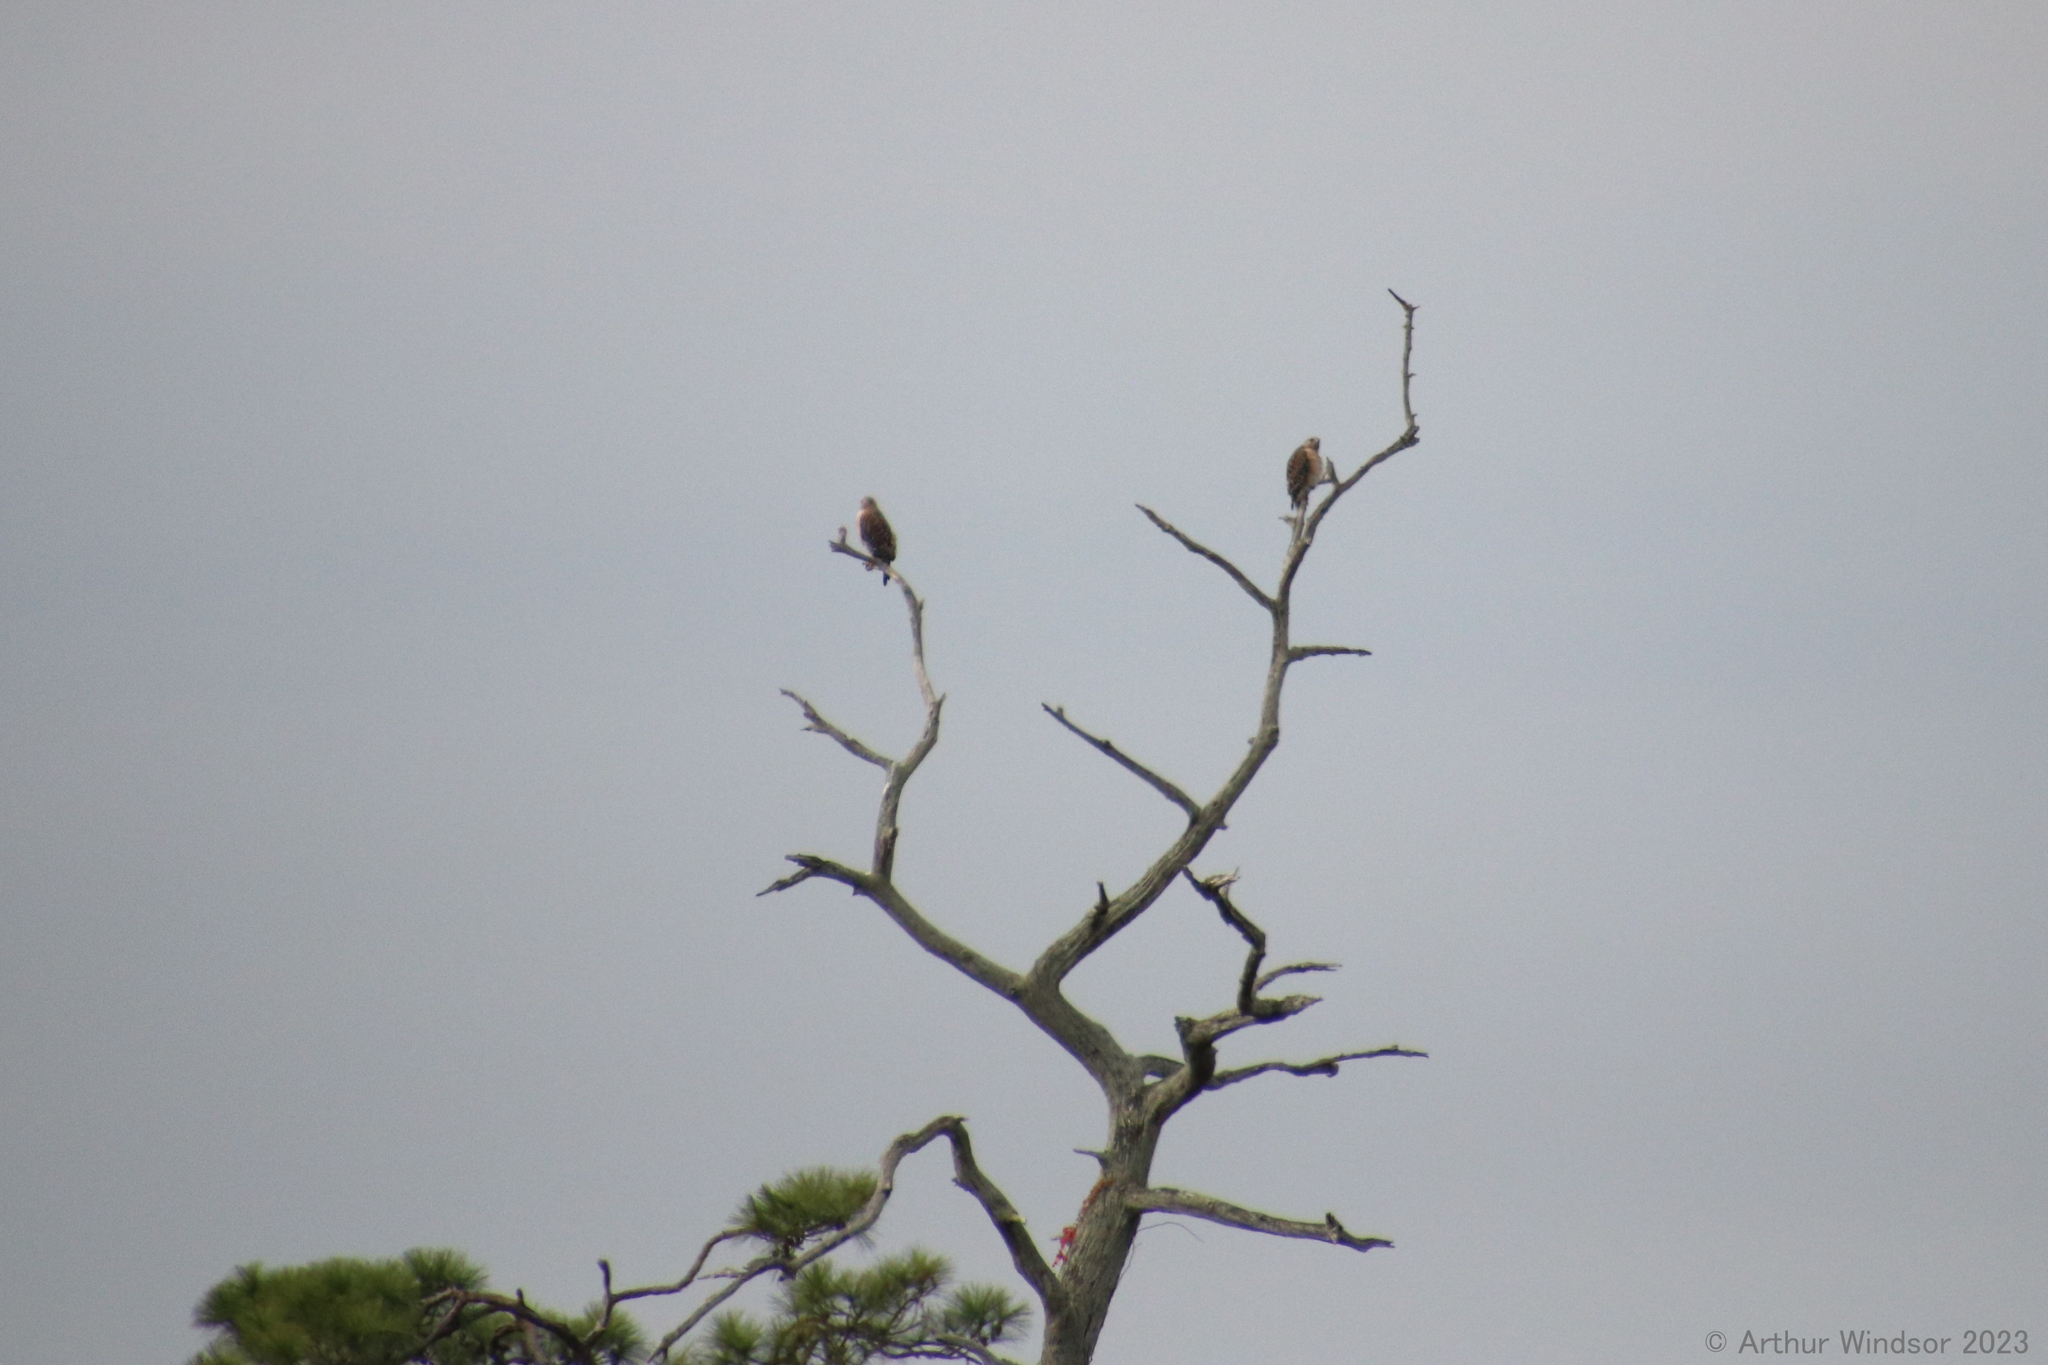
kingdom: Animalia
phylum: Chordata
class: Aves
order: Accipitriformes
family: Accipitridae
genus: Buteo
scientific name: Buteo lineatus
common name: Red-shouldered hawk
